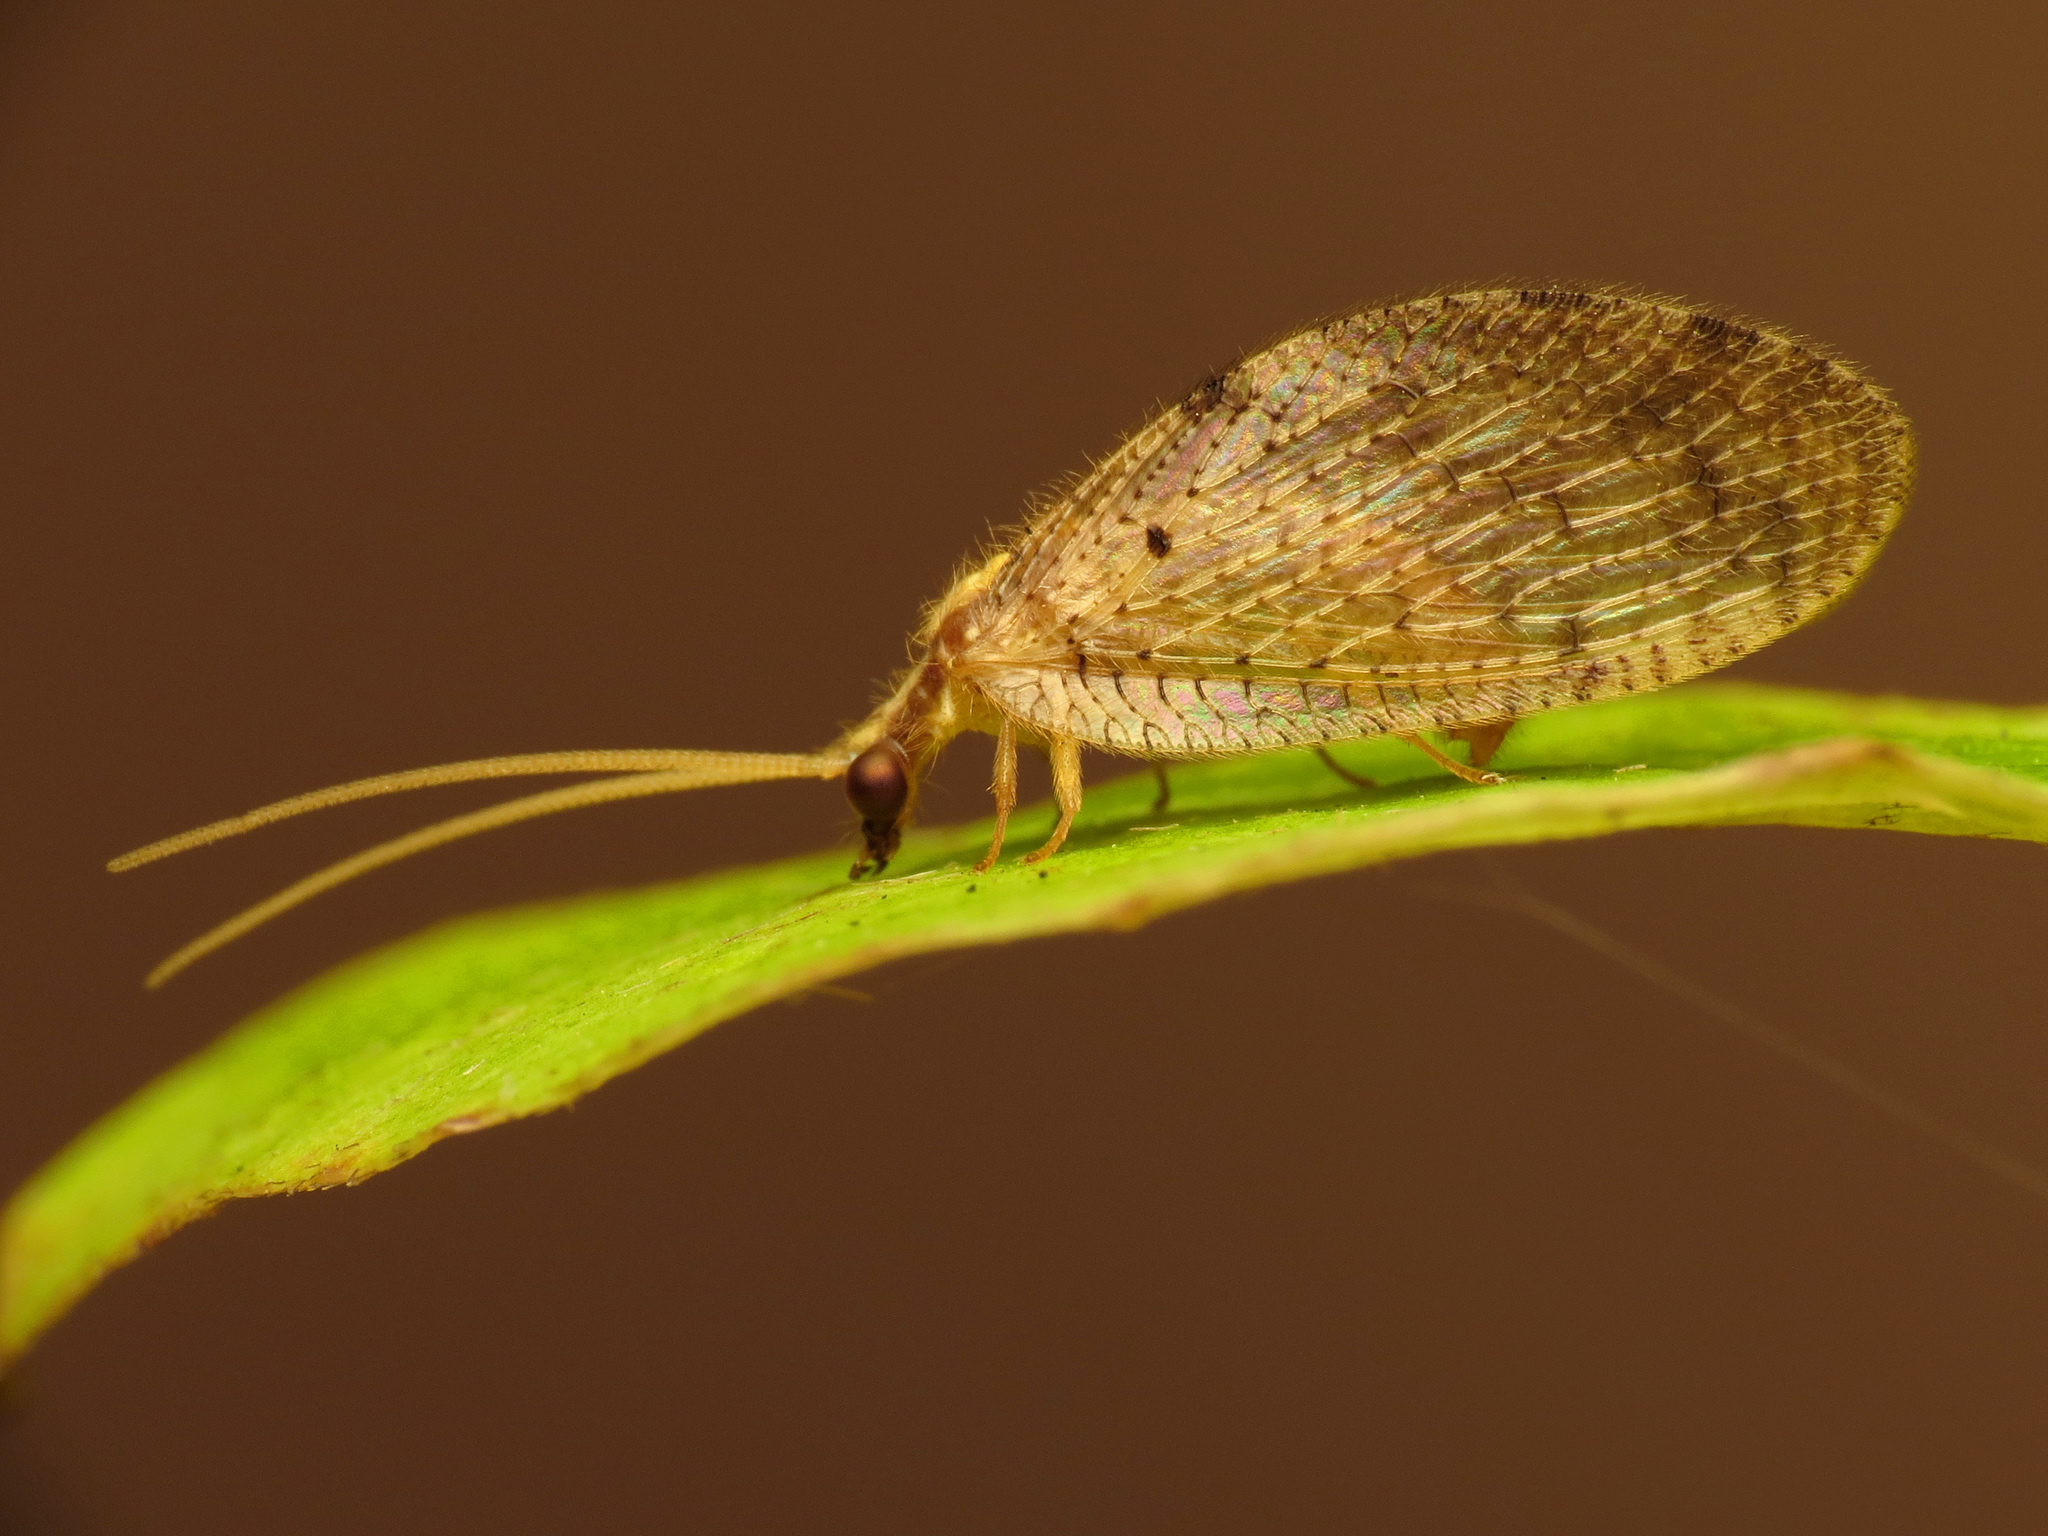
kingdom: Animalia
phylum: Arthropoda
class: Insecta
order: Neuroptera
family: Hemerobiidae
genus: Hemerobius
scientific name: Hemerobius humulinus
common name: Humulin brown lacewing
